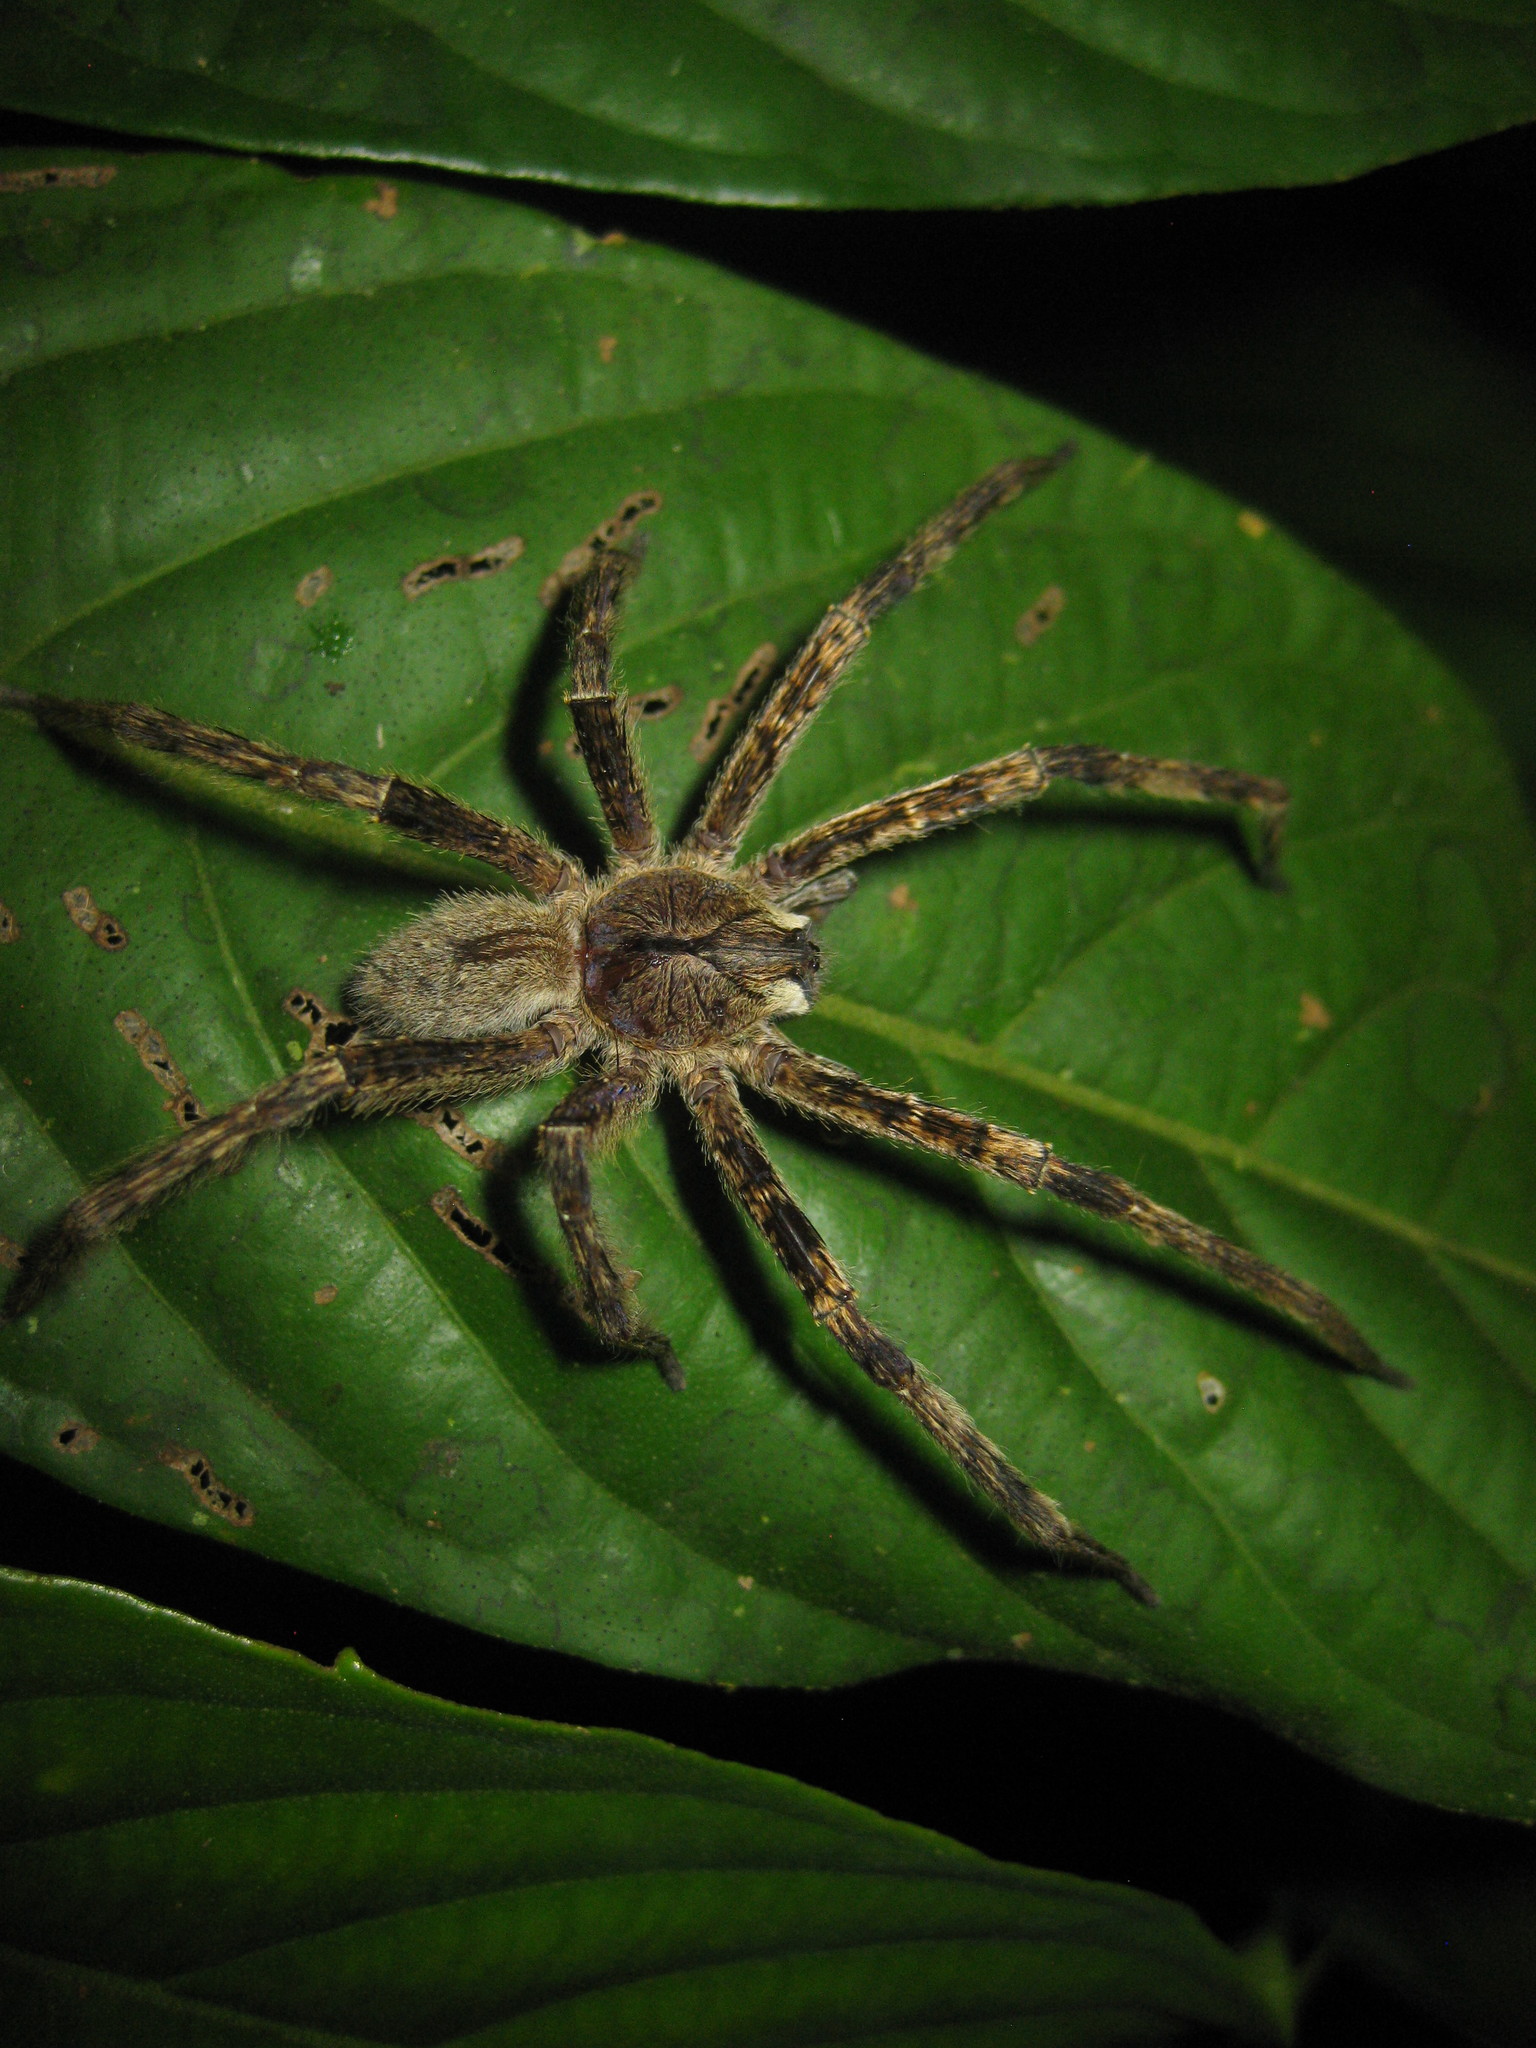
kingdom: Animalia
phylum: Arthropoda
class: Arachnida
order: Araneae
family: Ctenidae
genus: Phoneutria
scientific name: Phoneutria boliviensis
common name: Wandering spiders
